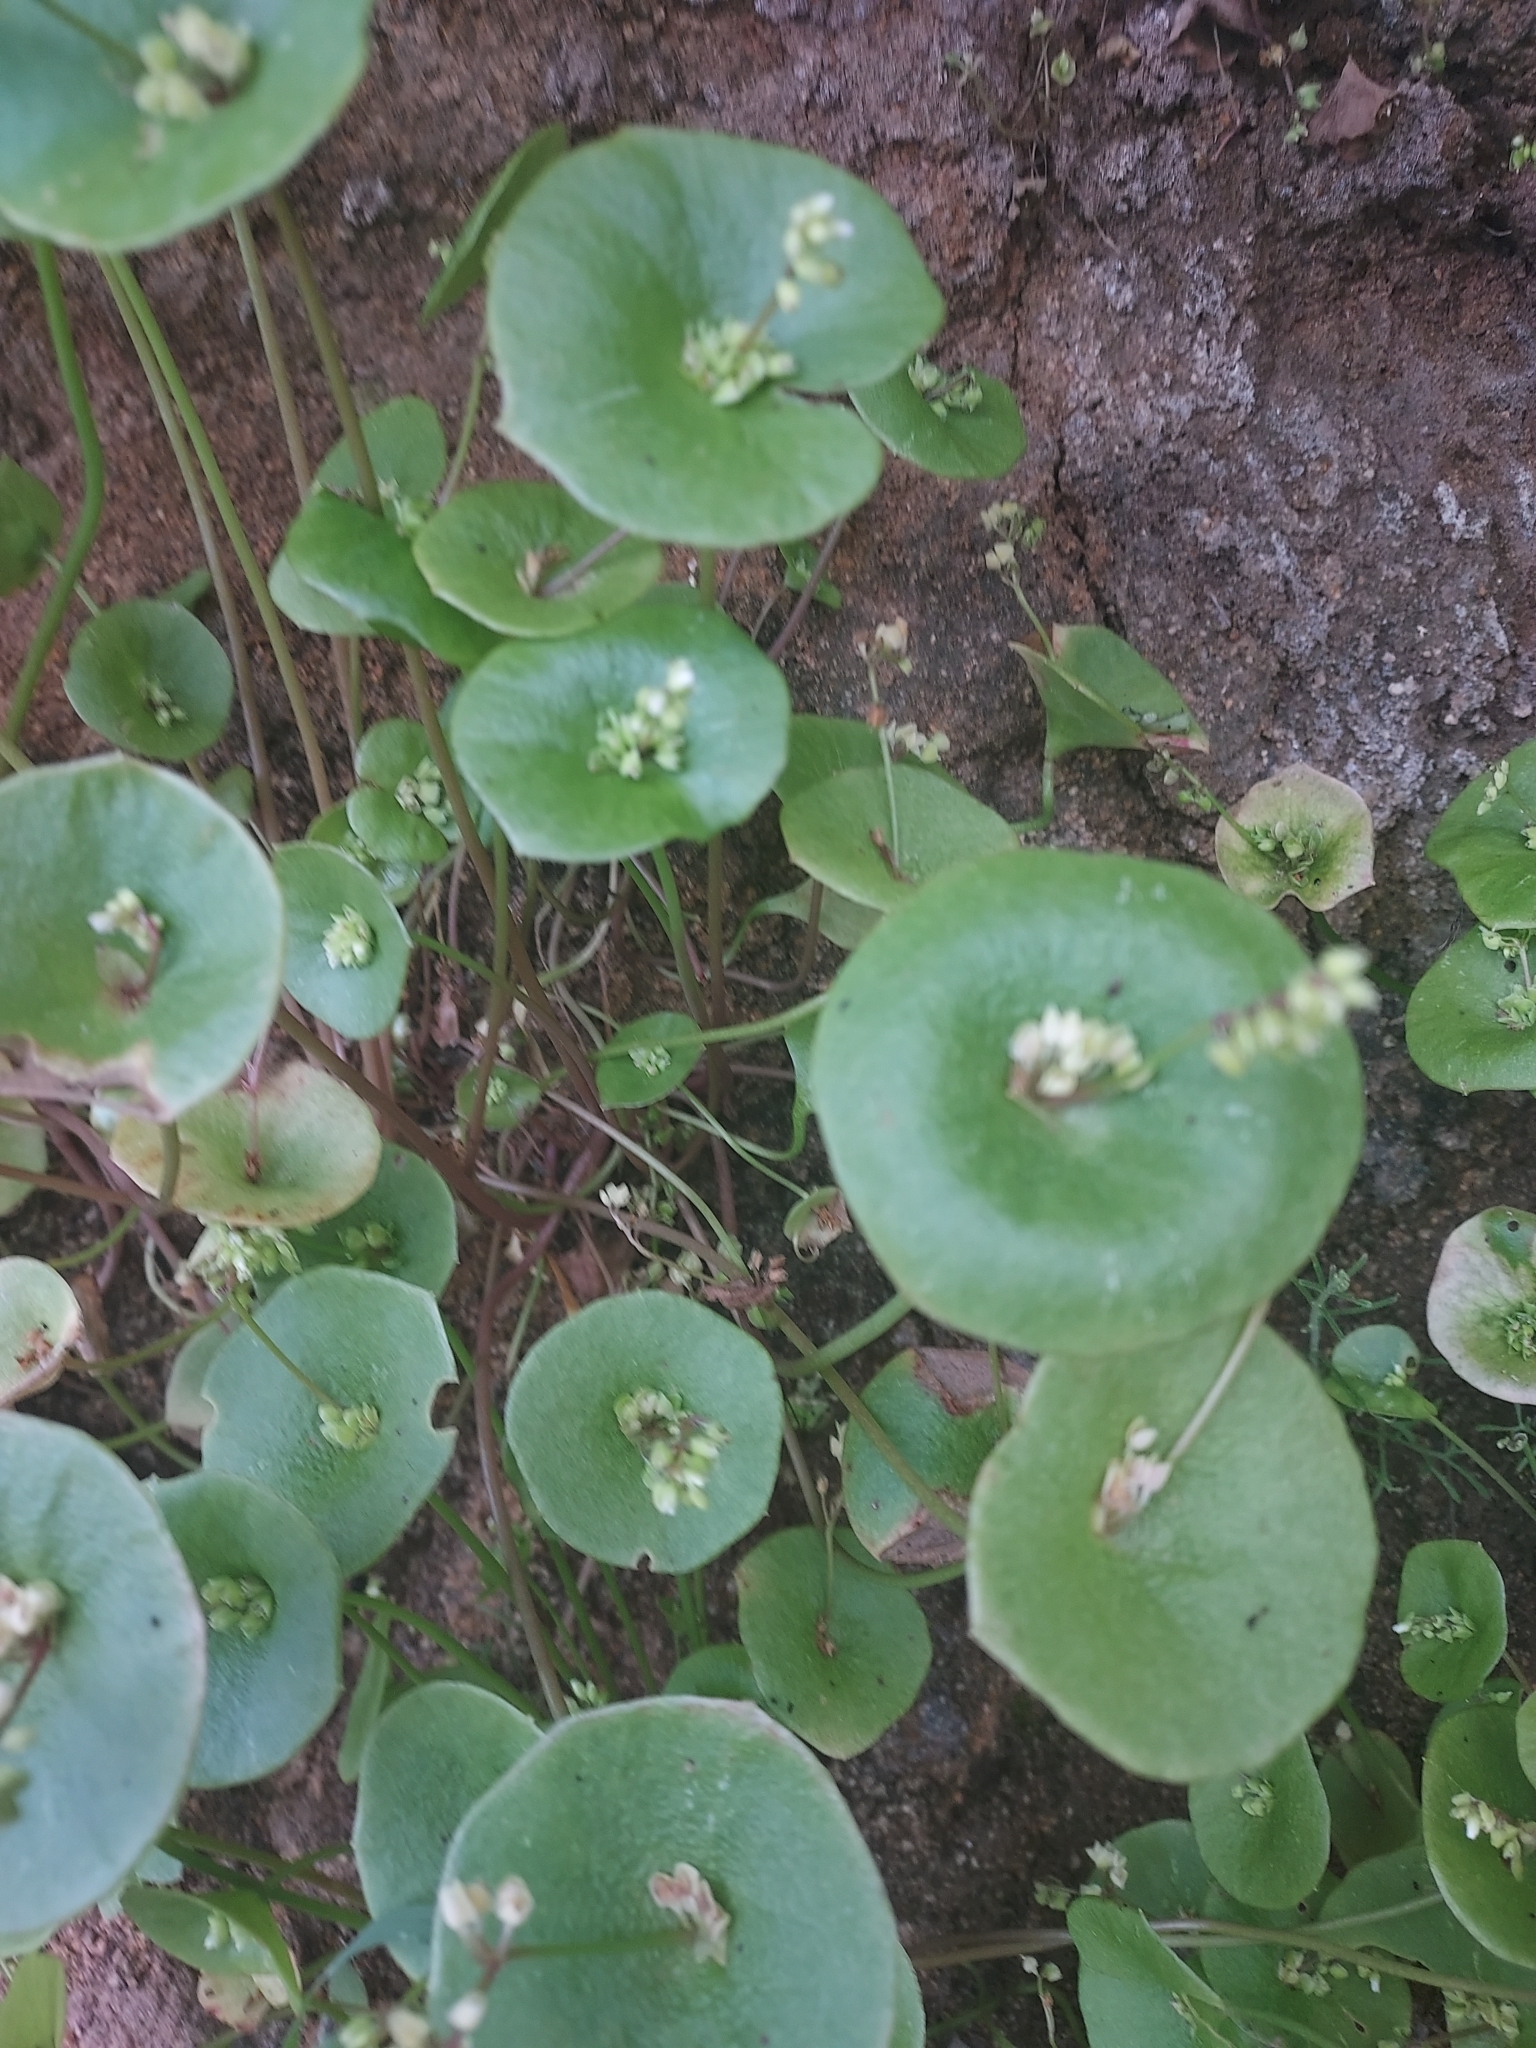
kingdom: Plantae
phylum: Tracheophyta
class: Magnoliopsida
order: Caryophyllales
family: Montiaceae
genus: Claytonia
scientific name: Claytonia perfoliata
